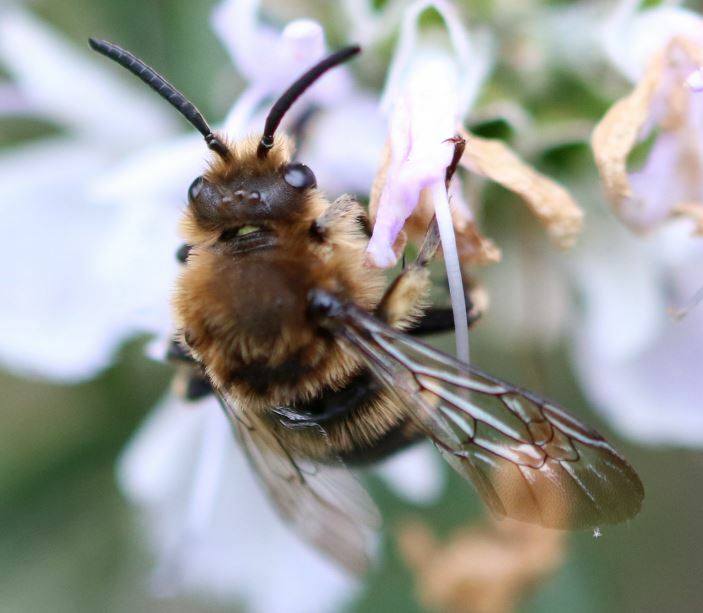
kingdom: Animalia
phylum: Arthropoda
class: Insecta
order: Hymenoptera
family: Apidae
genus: Melecta
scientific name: Melecta albifrons
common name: Common mourning bee
